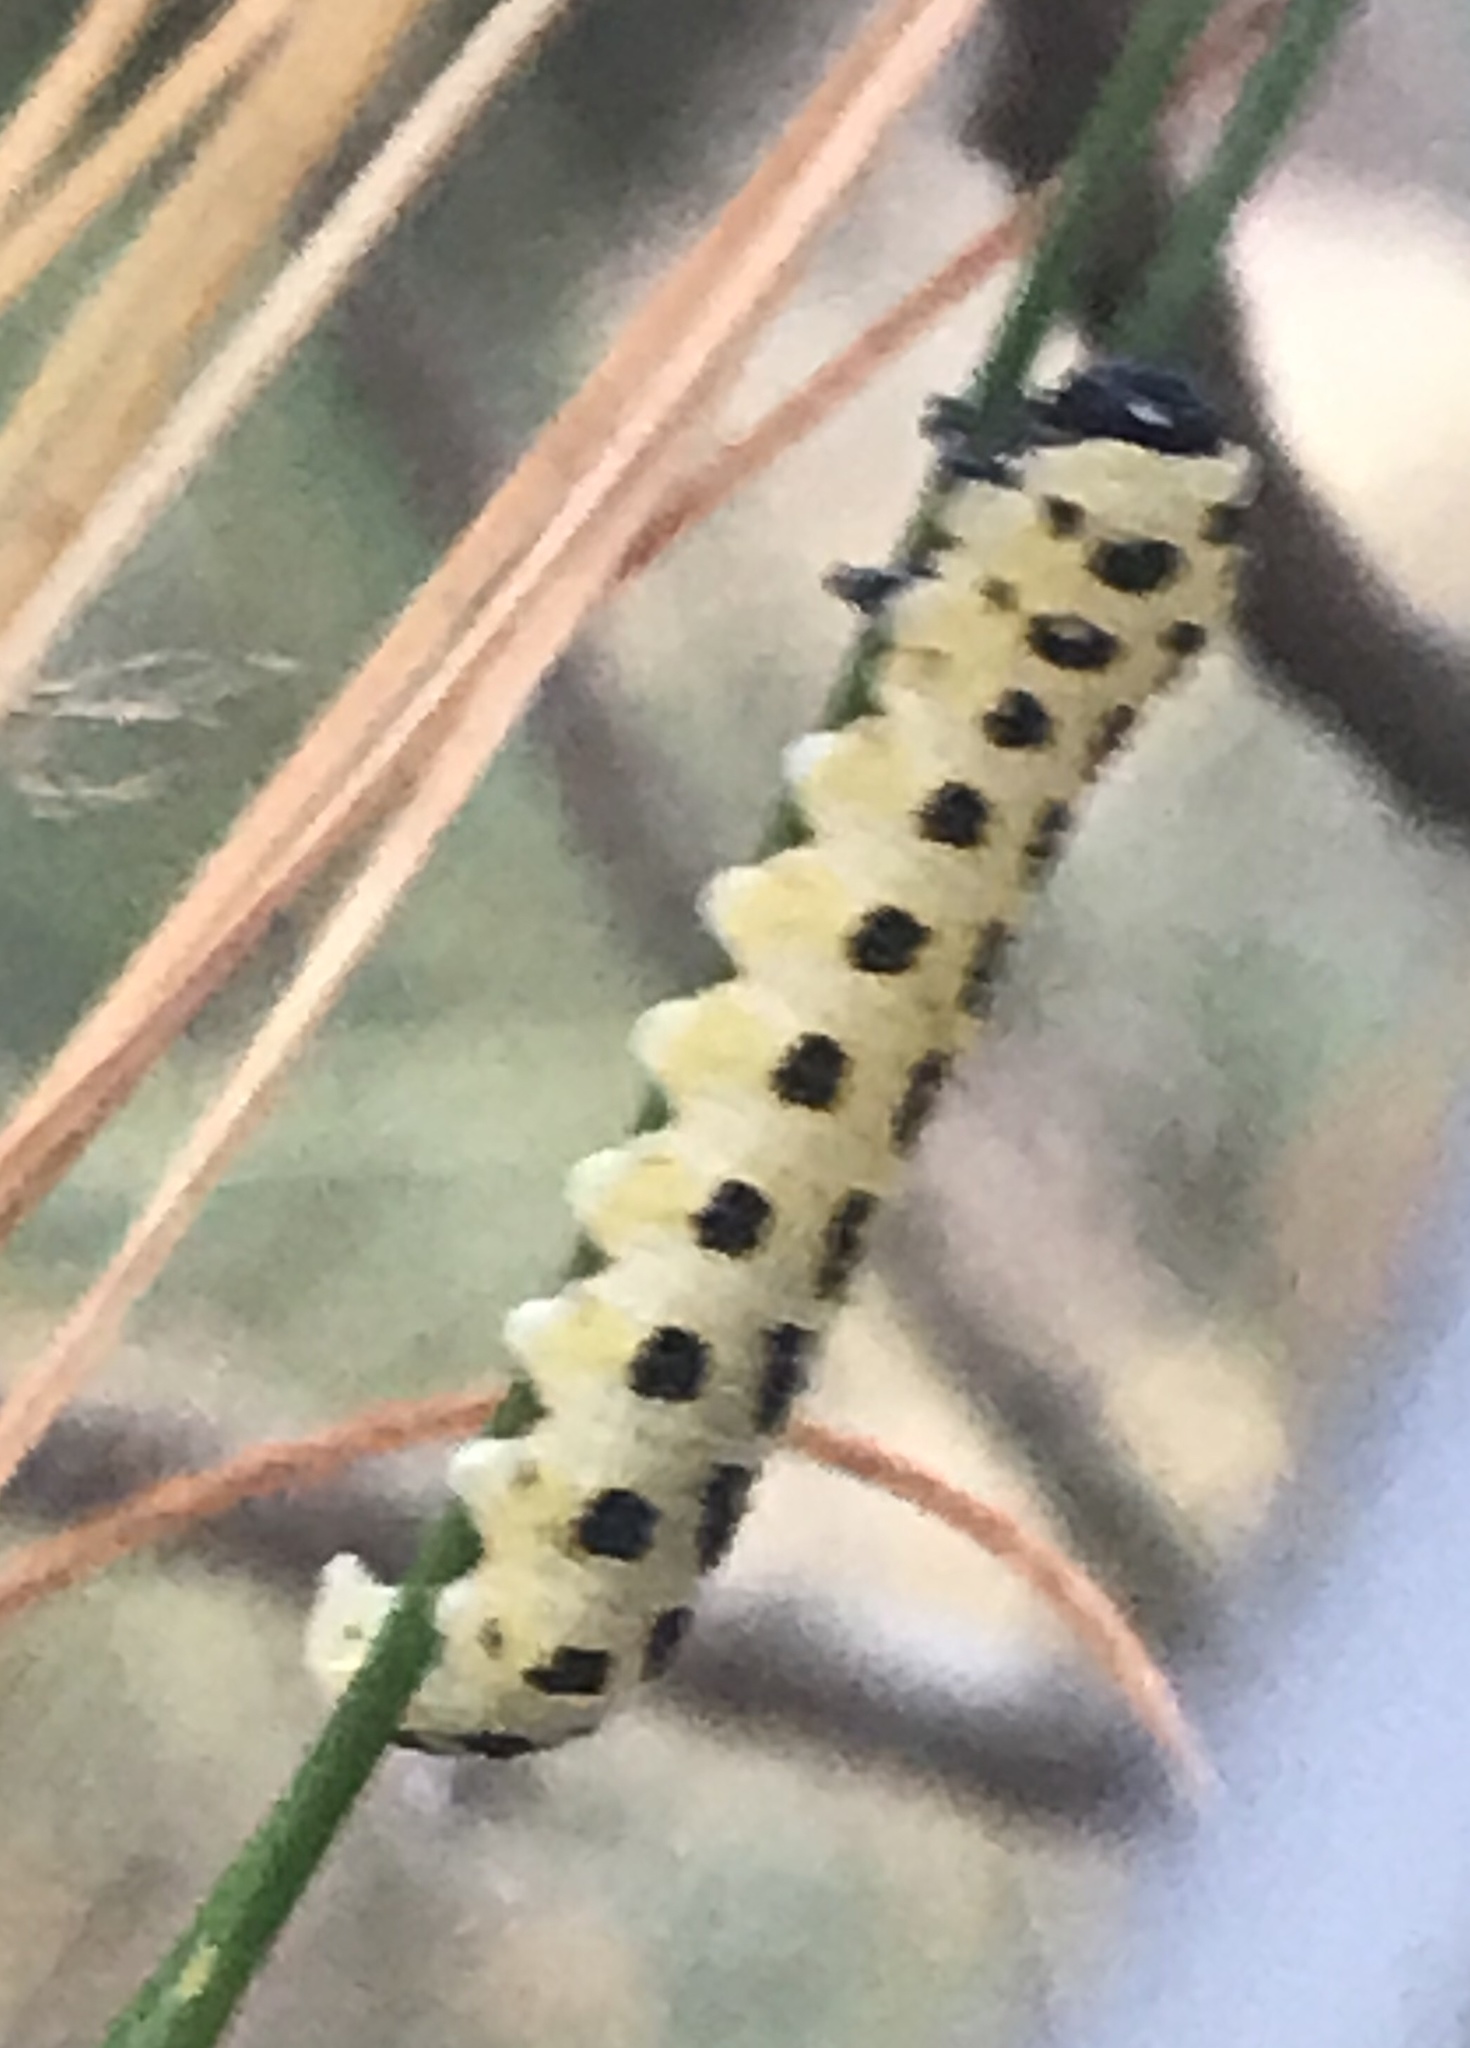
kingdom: Animalia
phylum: Arthropoda
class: Insecta
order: Hymenoptera
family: Diprionidae
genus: Neodiprion
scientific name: Neodiprion pinetum
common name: White pine sawfly
